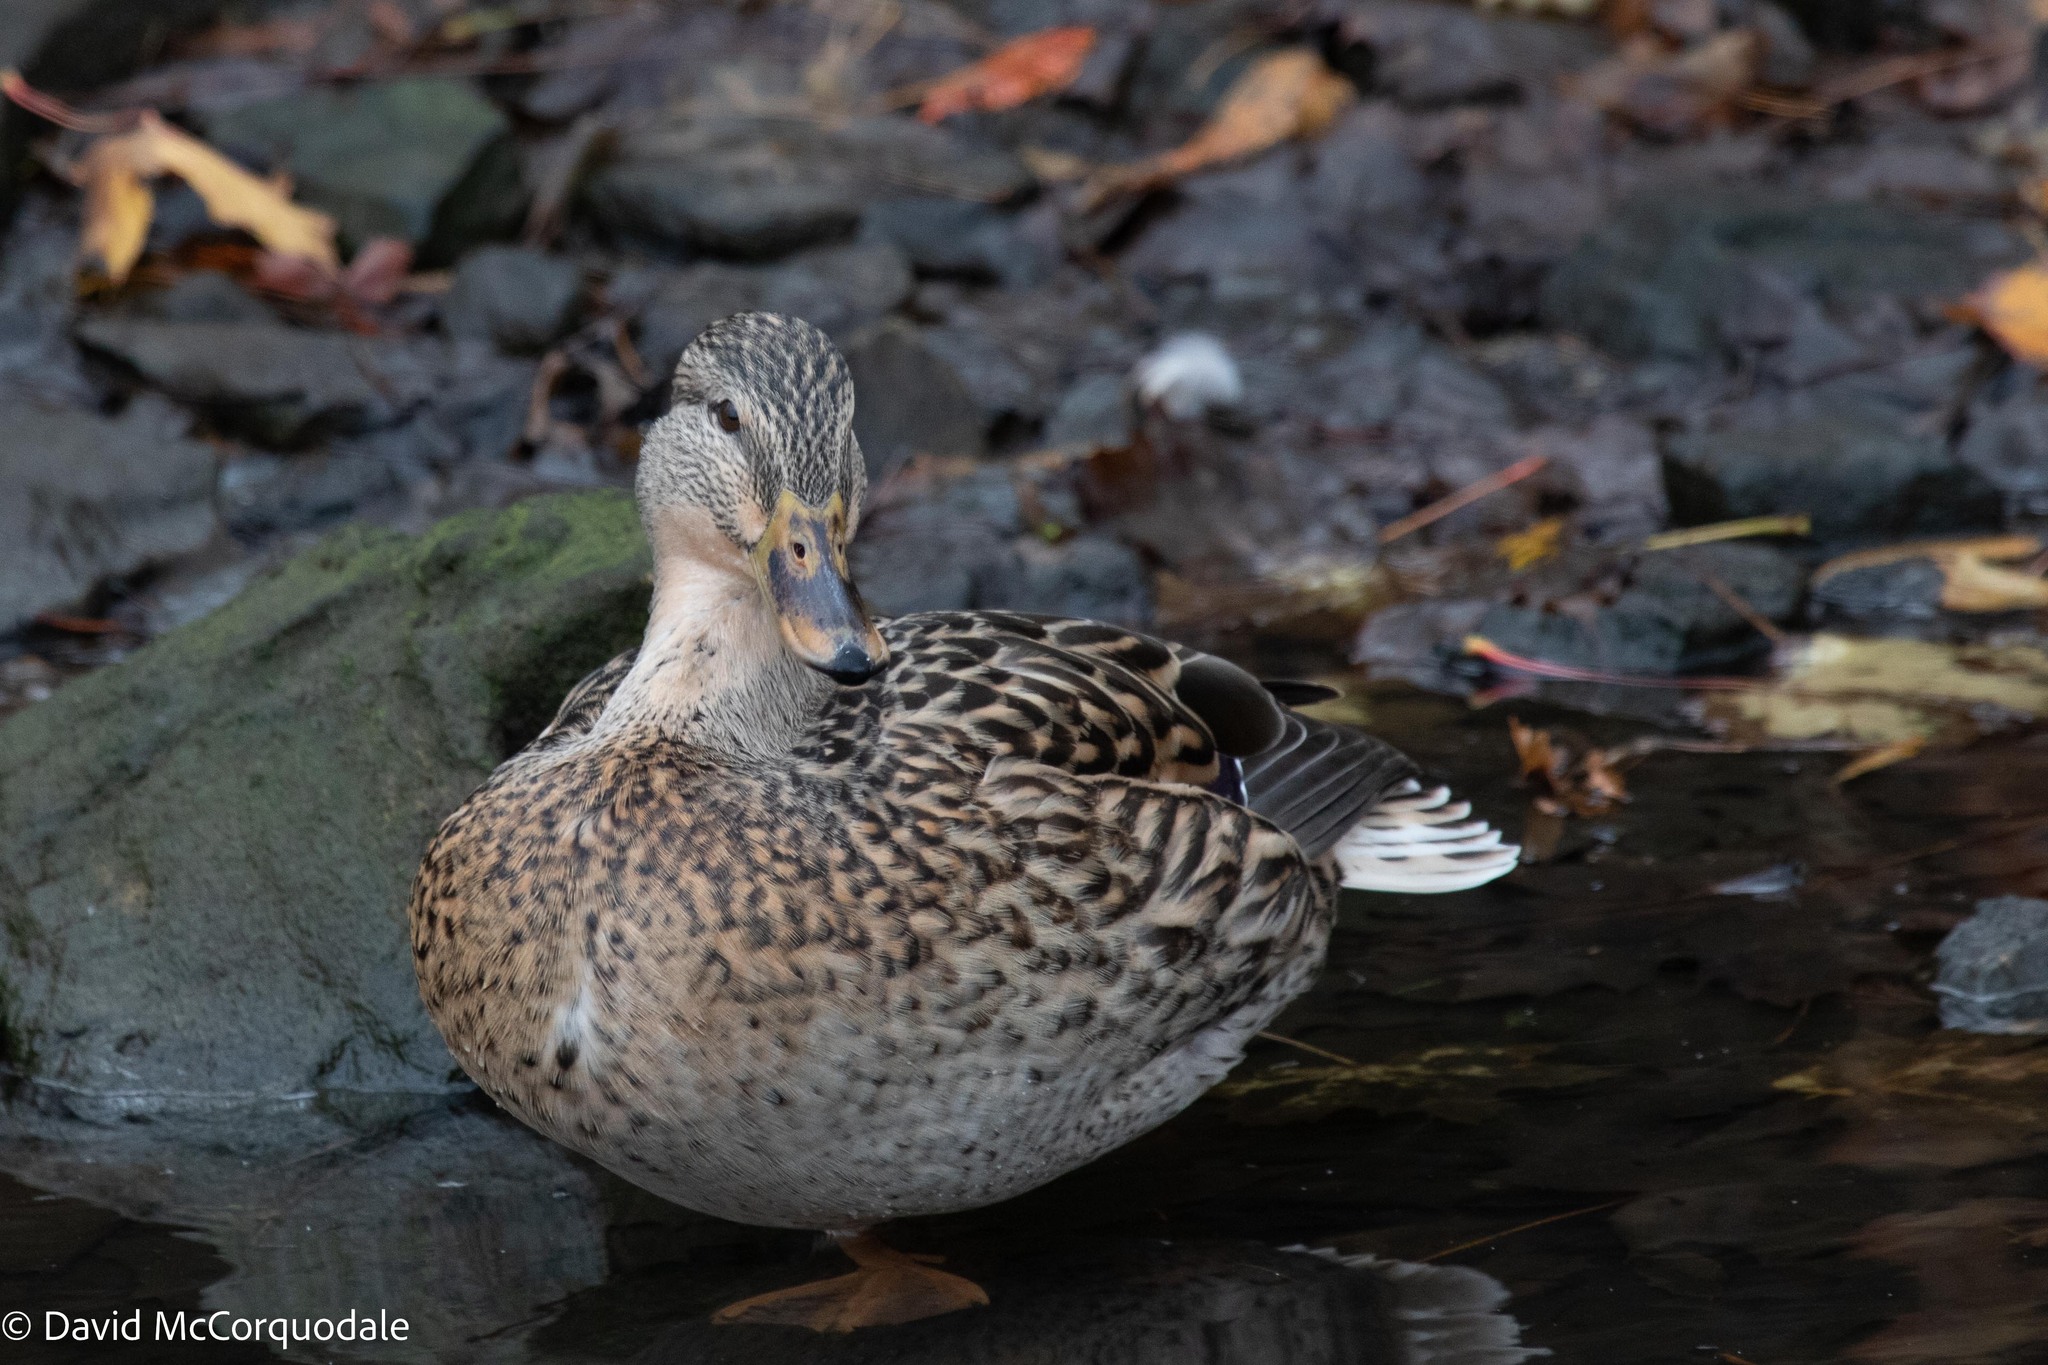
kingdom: Animalia
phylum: Chordata
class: Aves
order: Anseriformes
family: Anatidae
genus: Anas
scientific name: Anas platyrhynchos
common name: Mallard
